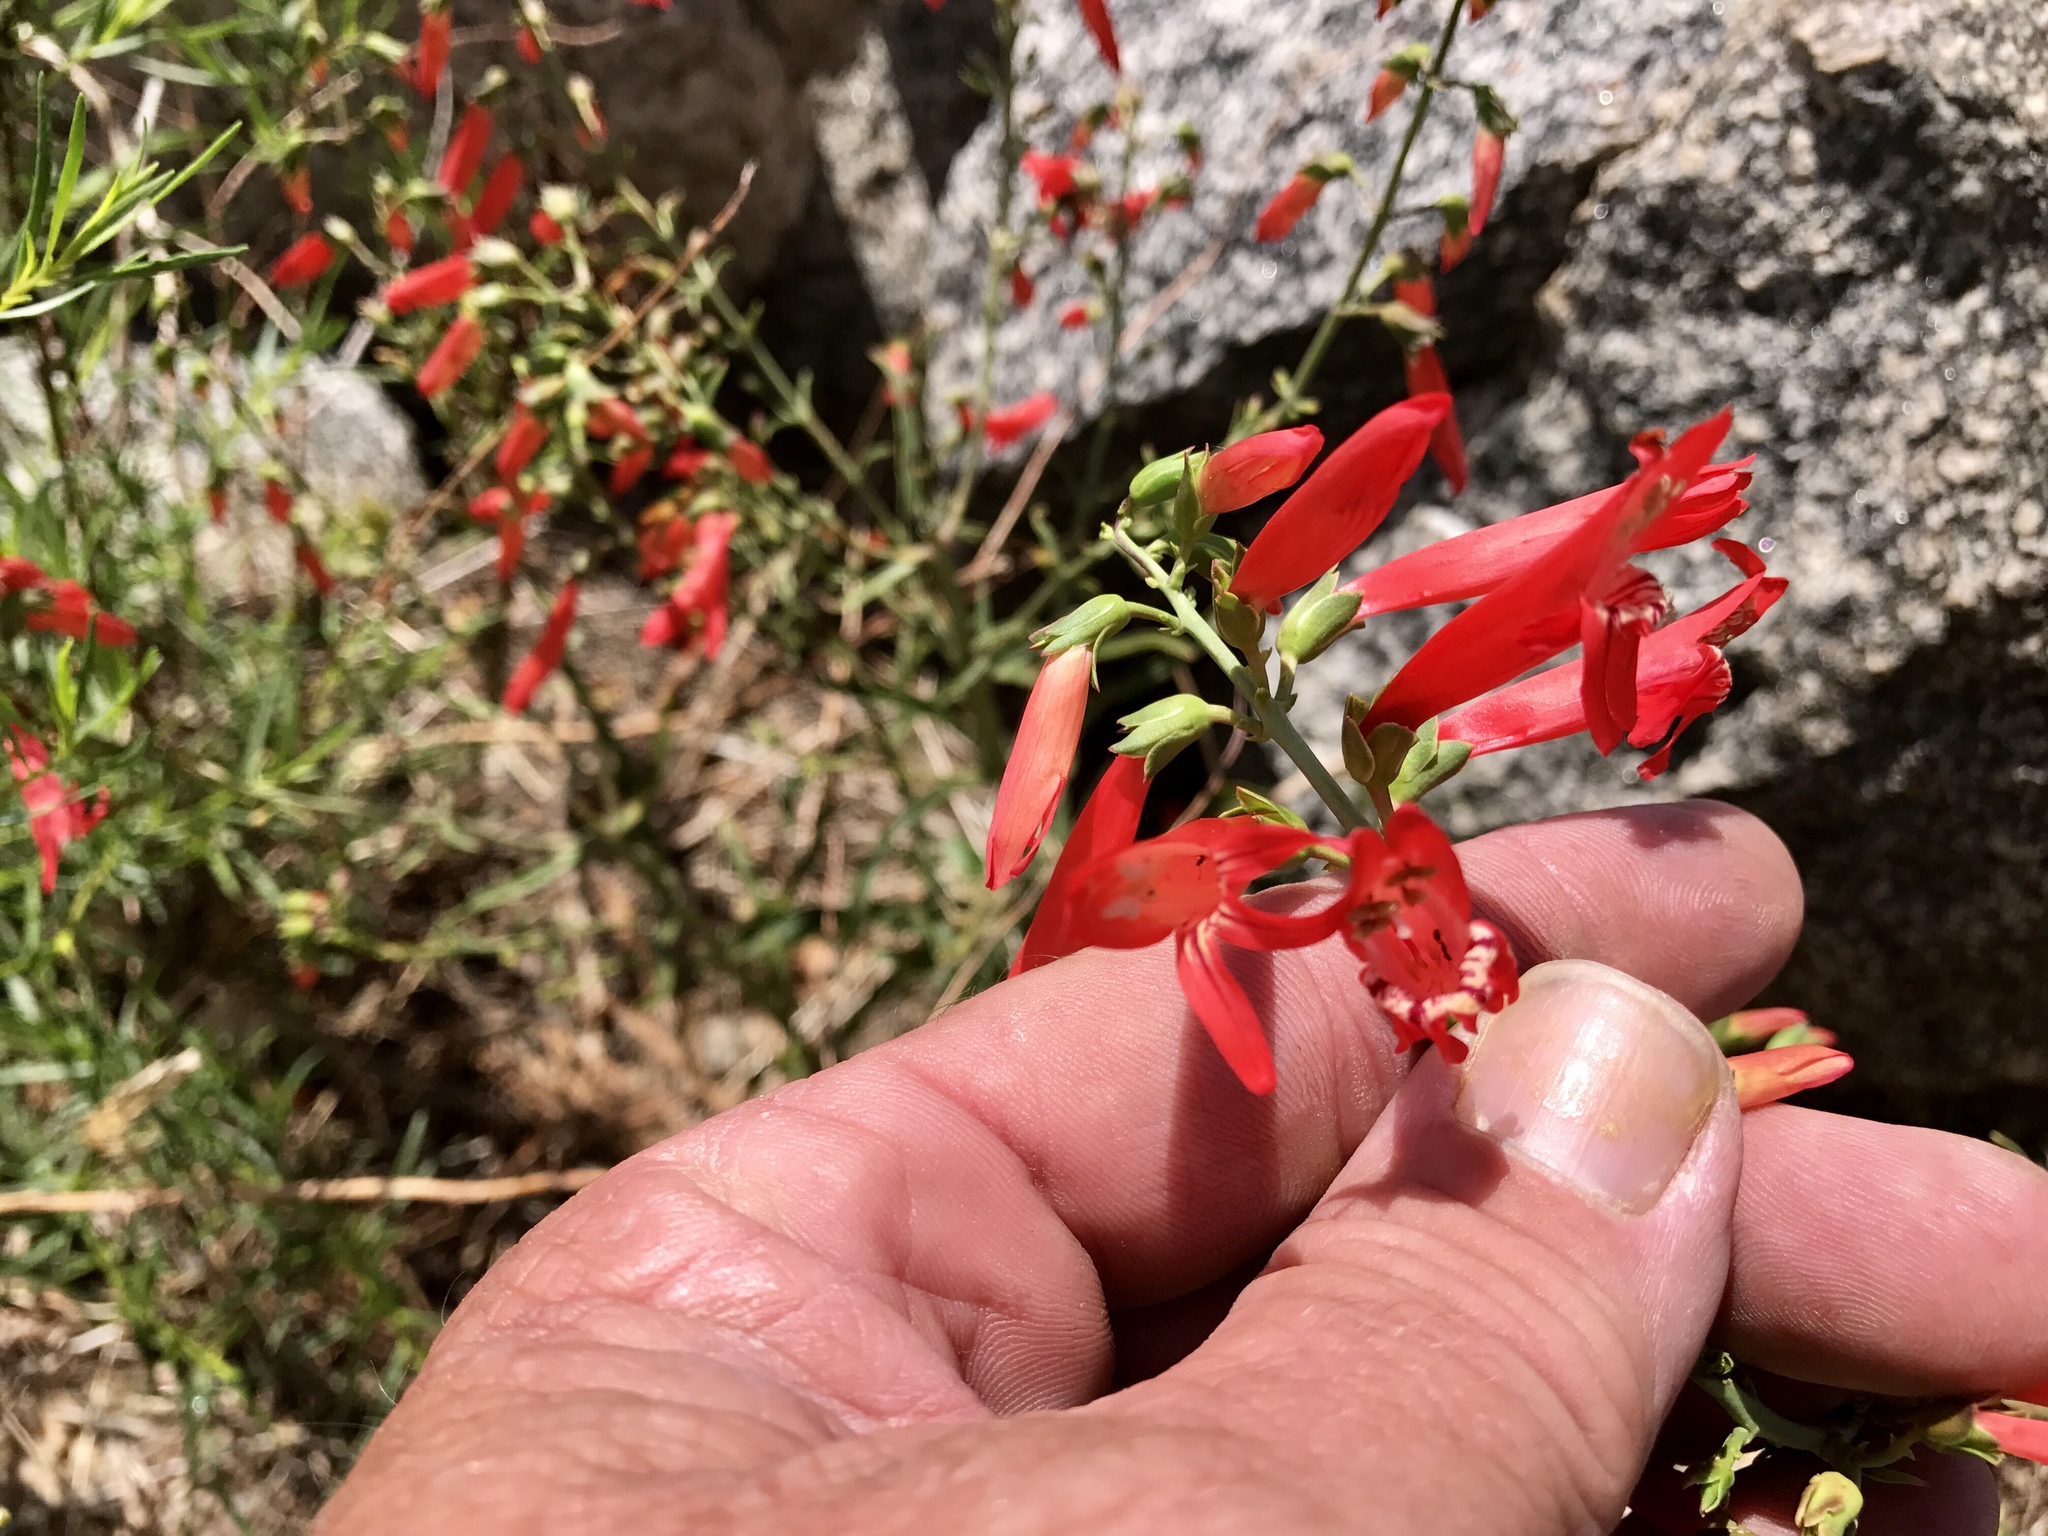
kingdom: Plantae
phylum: Tracheophyta
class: Magnoliopsida
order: Lamiales
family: Plantaginaceae
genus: Penstemon
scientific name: Penstemon barbatus
